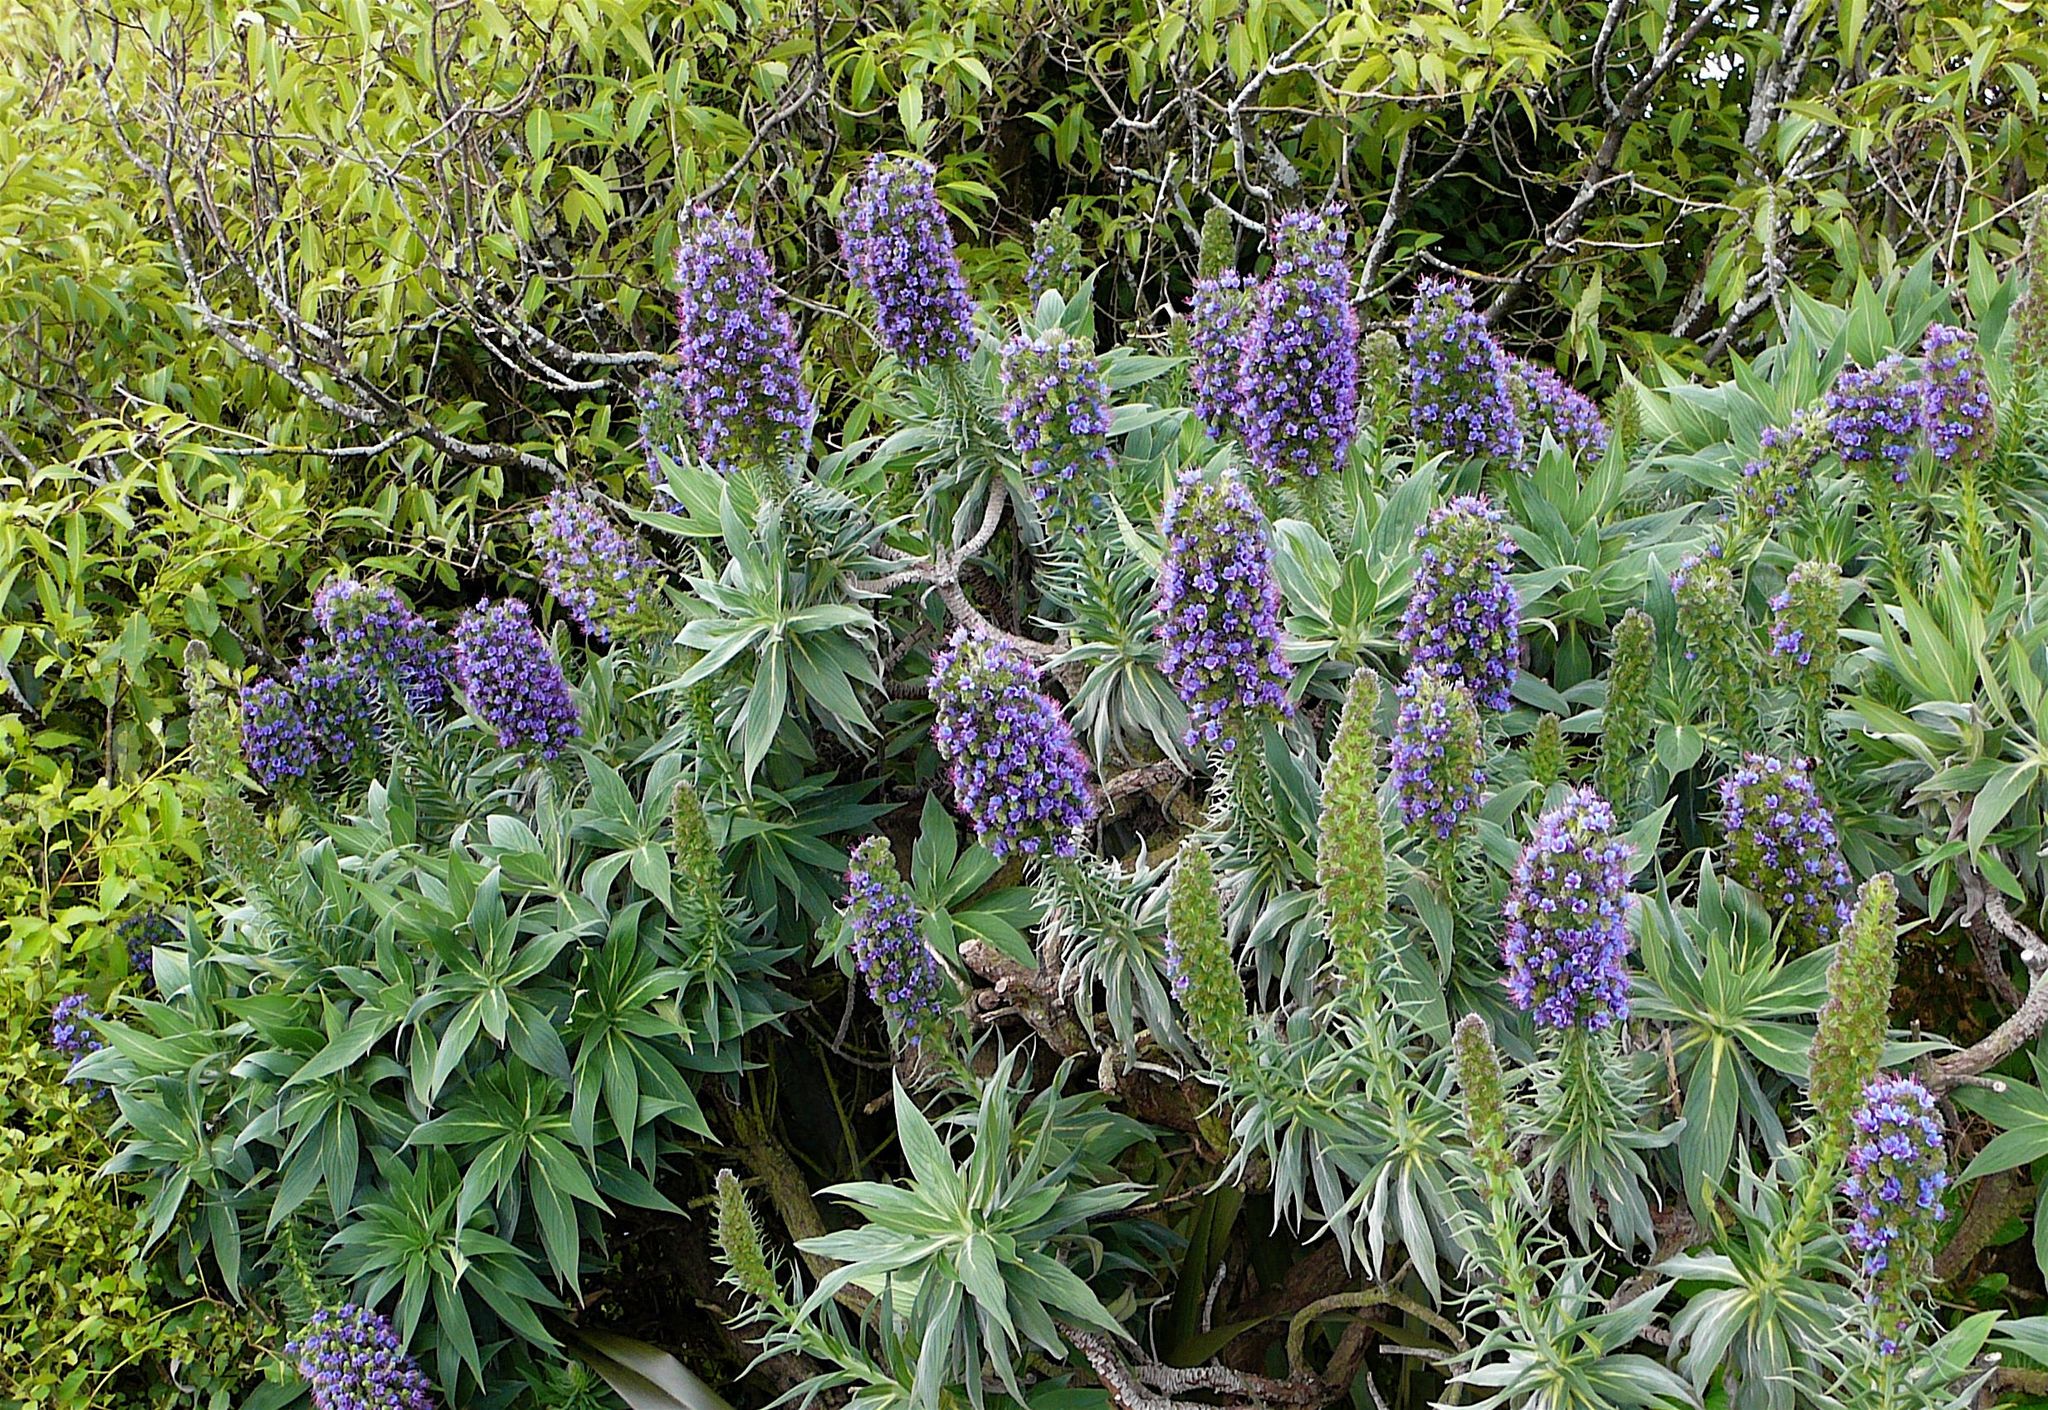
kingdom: Plantae
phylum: Tracheophyta
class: Magnoliopsida
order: Boraginales
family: Boraginaceae
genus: Echium
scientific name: Echium candicans
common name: Pride of madeira
